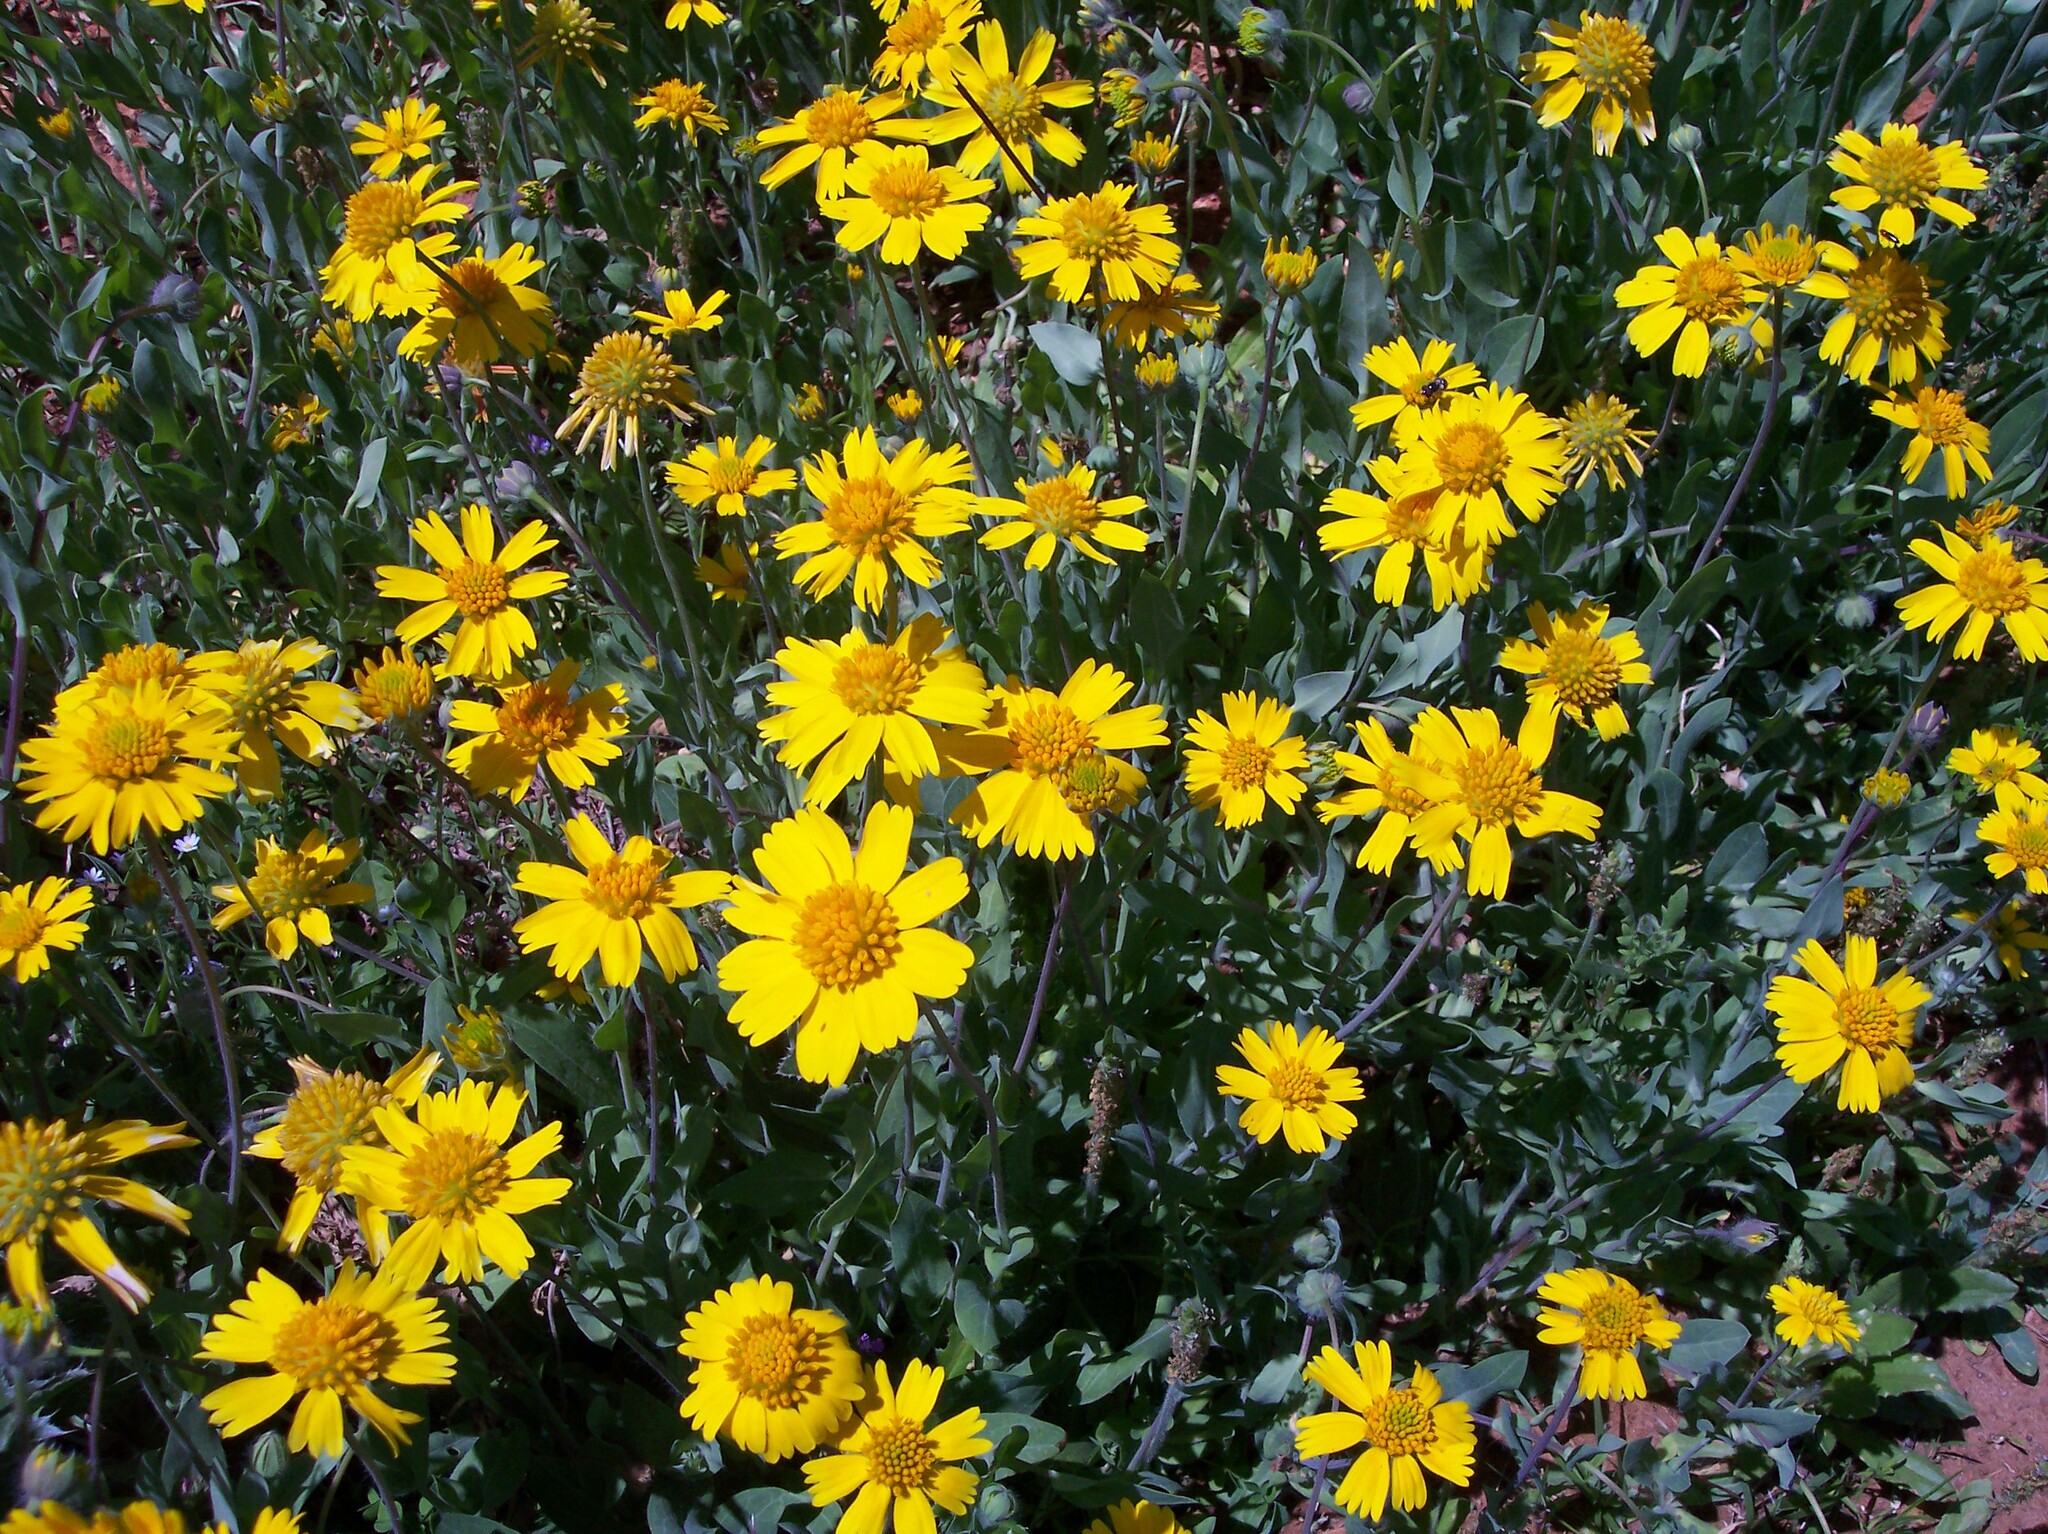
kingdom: Plantae
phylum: Tracheophyta
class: Magnoliopsida
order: Asterales
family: Asteraceae
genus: Amblyolepis
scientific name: Amblyolepis setigera
